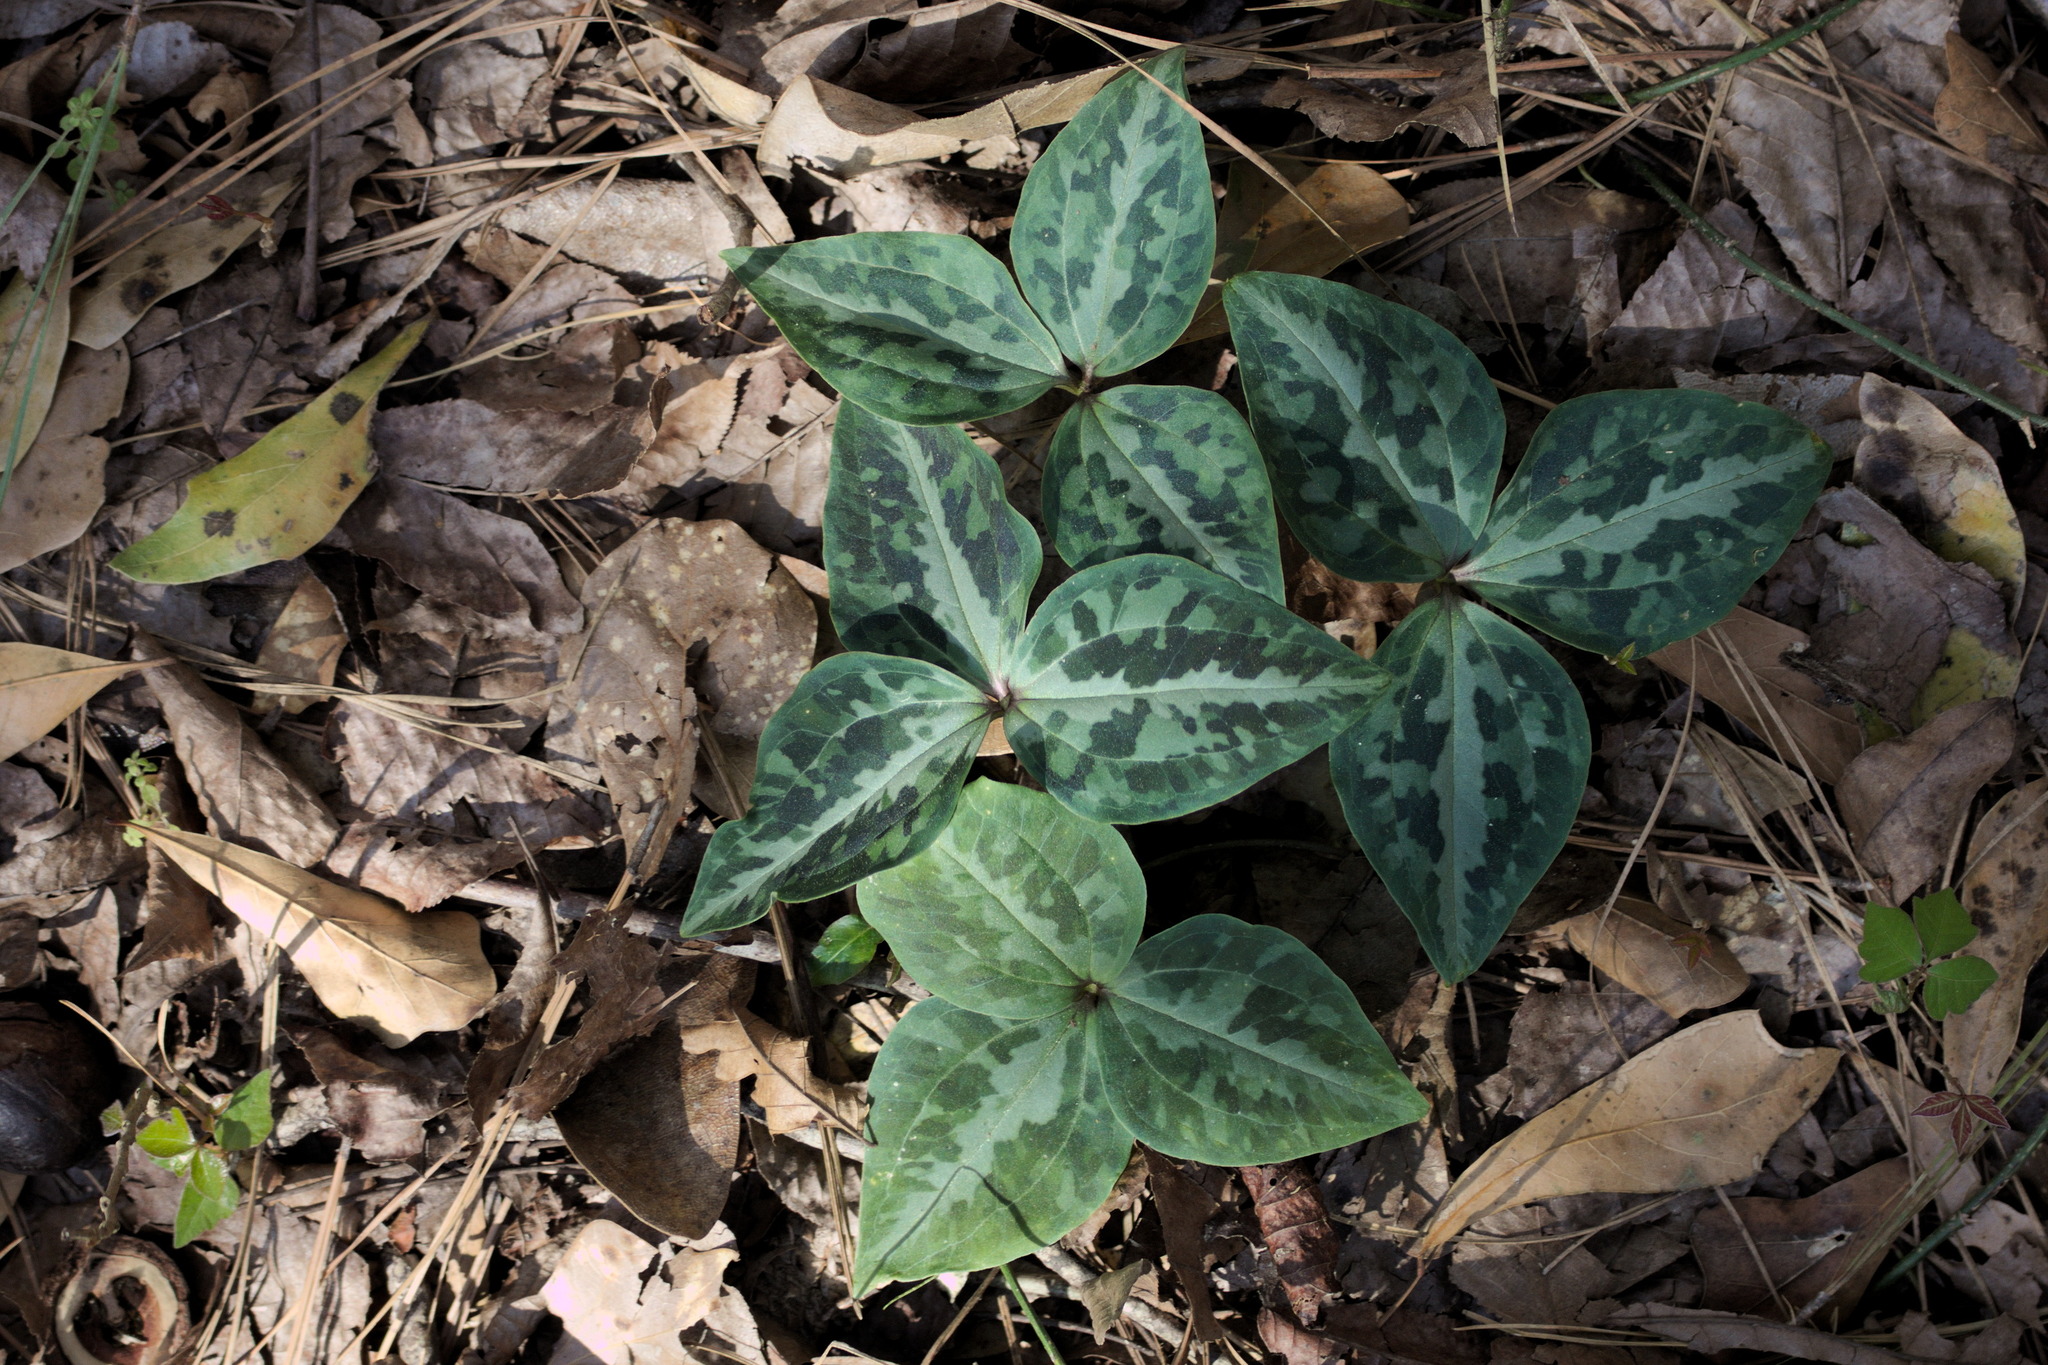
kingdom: Plantae
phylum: Tracheophyta
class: Liliopsida
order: Liliales
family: Melanthiaceae
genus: Trillium
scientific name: Trillium underwoodii
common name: Longbract wakerobin
